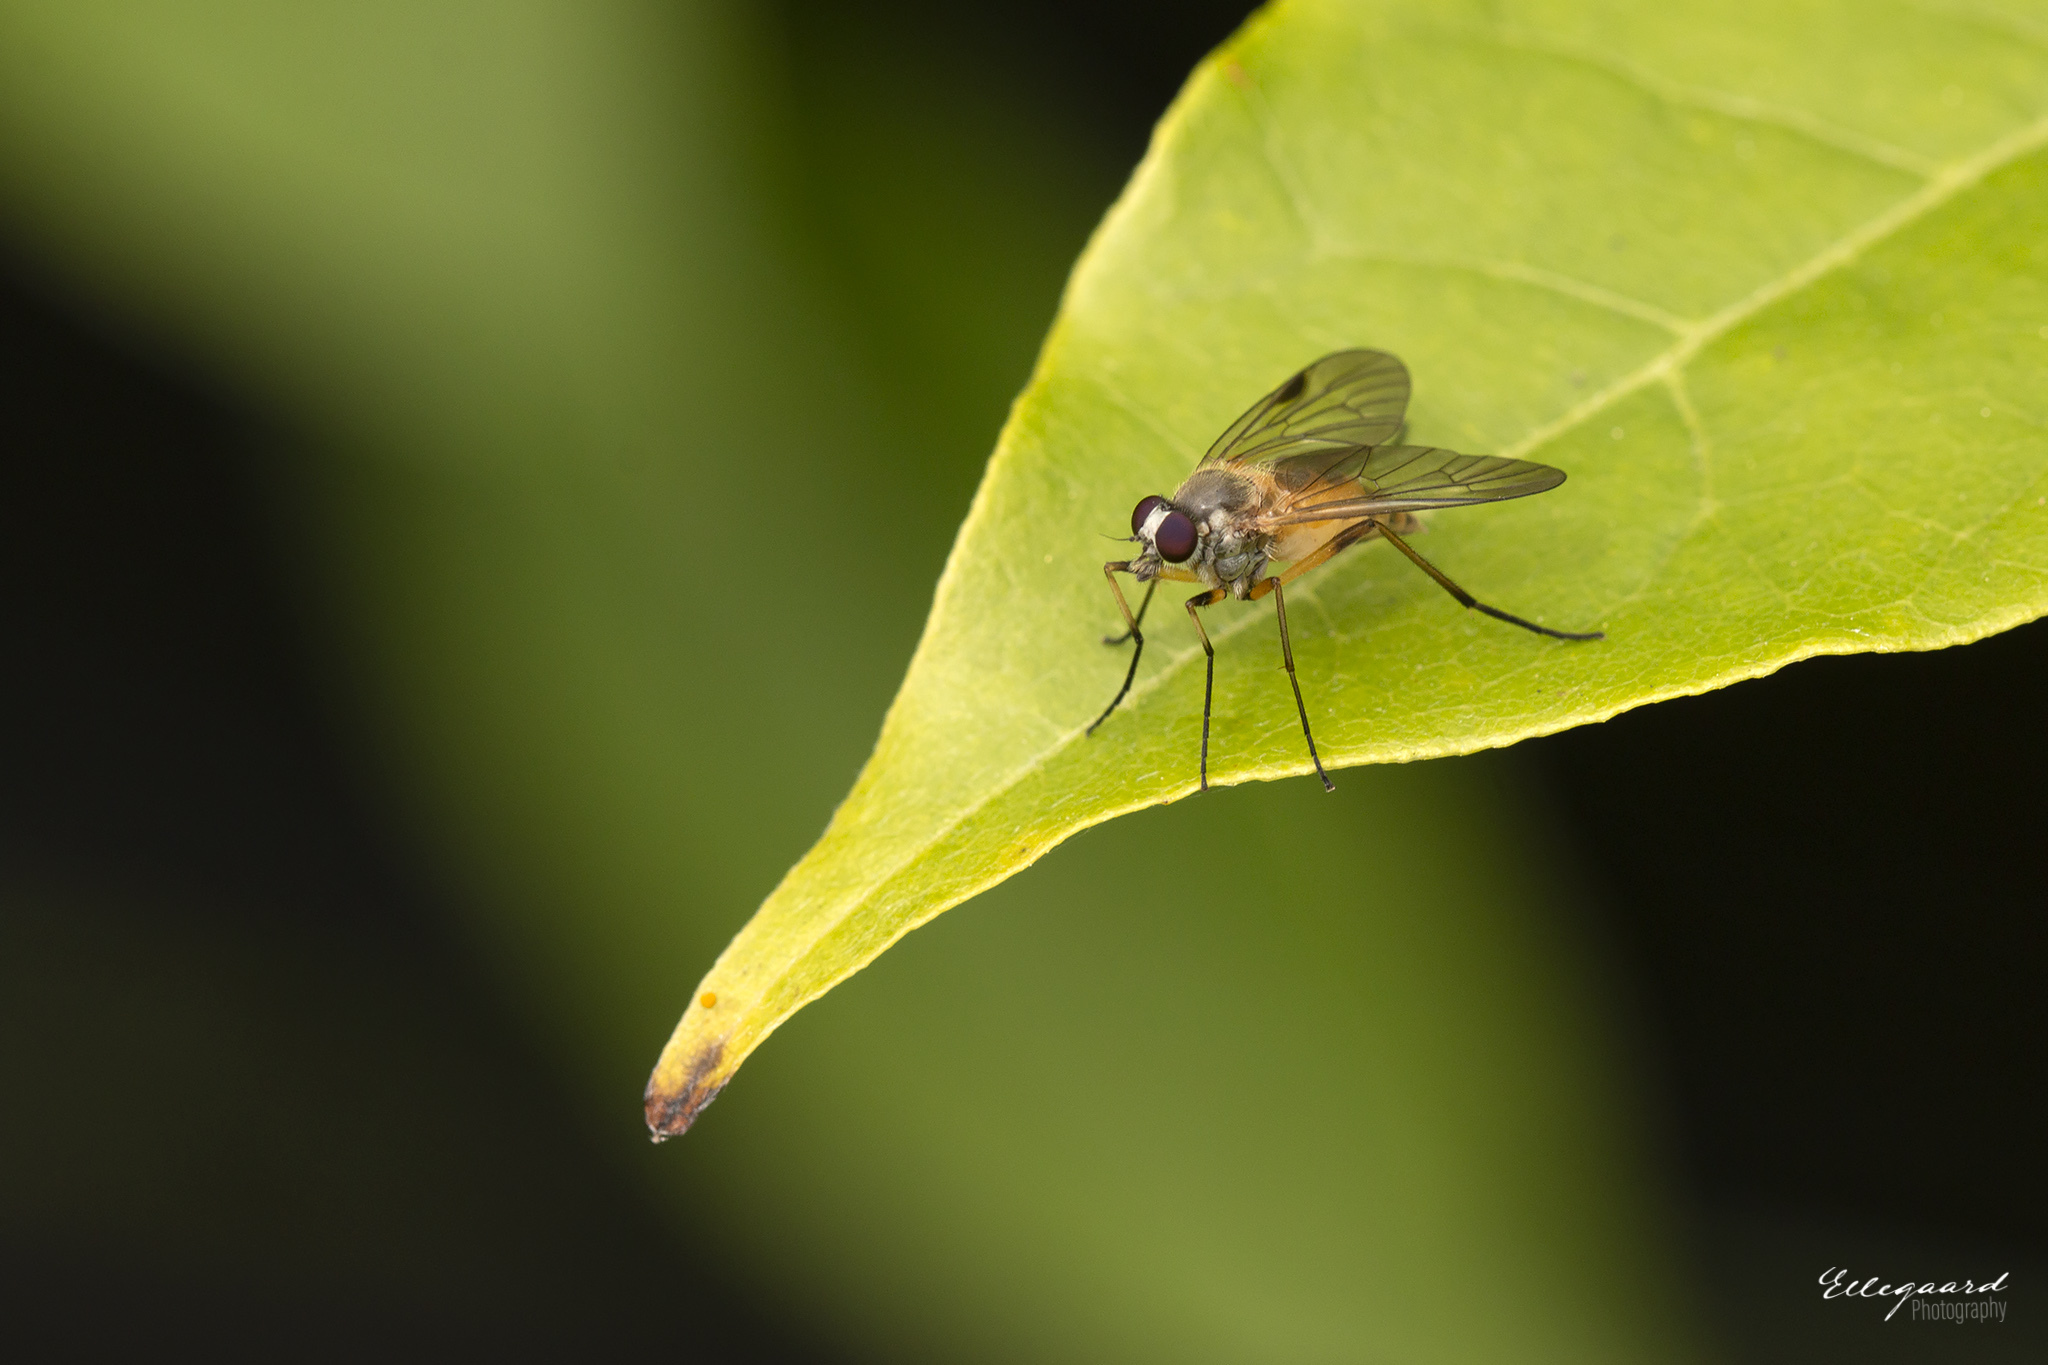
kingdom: Animalia
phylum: Arthropoda
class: Insecta
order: Diptera
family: Rhagionidae
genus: Rhagio
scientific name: Rhagio lineola
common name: Small fleck-winged snipefly
